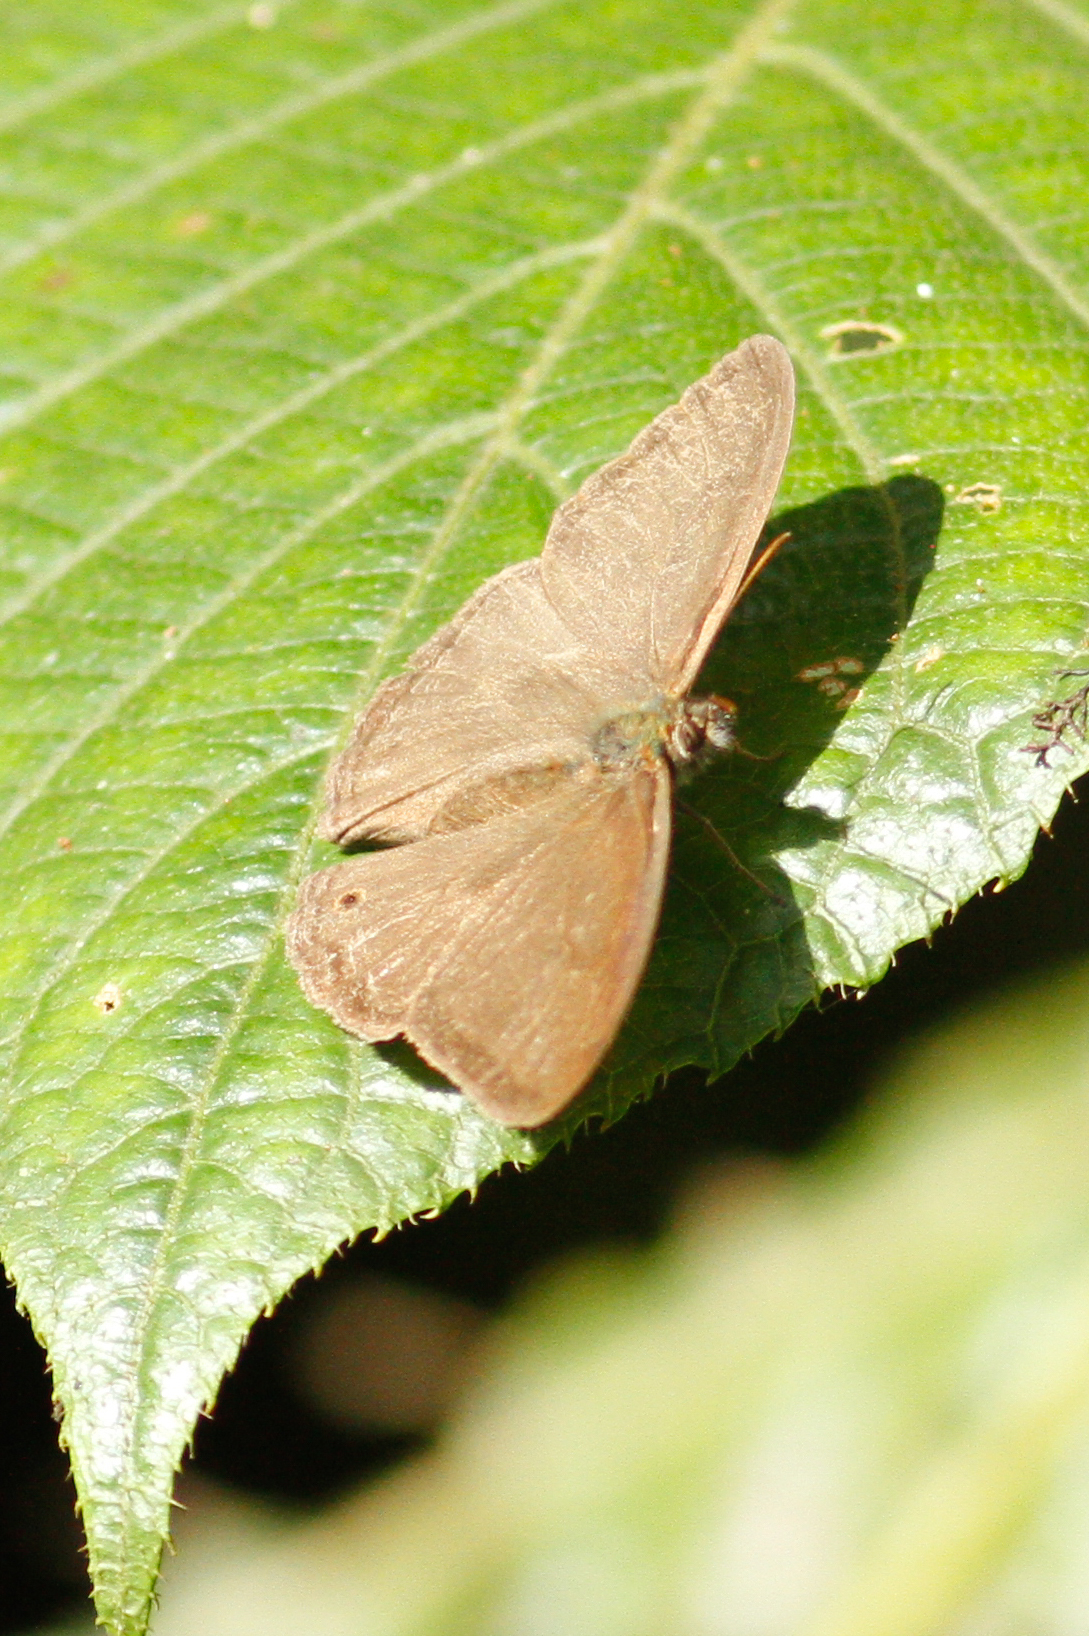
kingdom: Animalia
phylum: Arthropoda
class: Insecta
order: Lepidoptera
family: Nymphalidae
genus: Euptychiina
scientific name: Euptychiina
